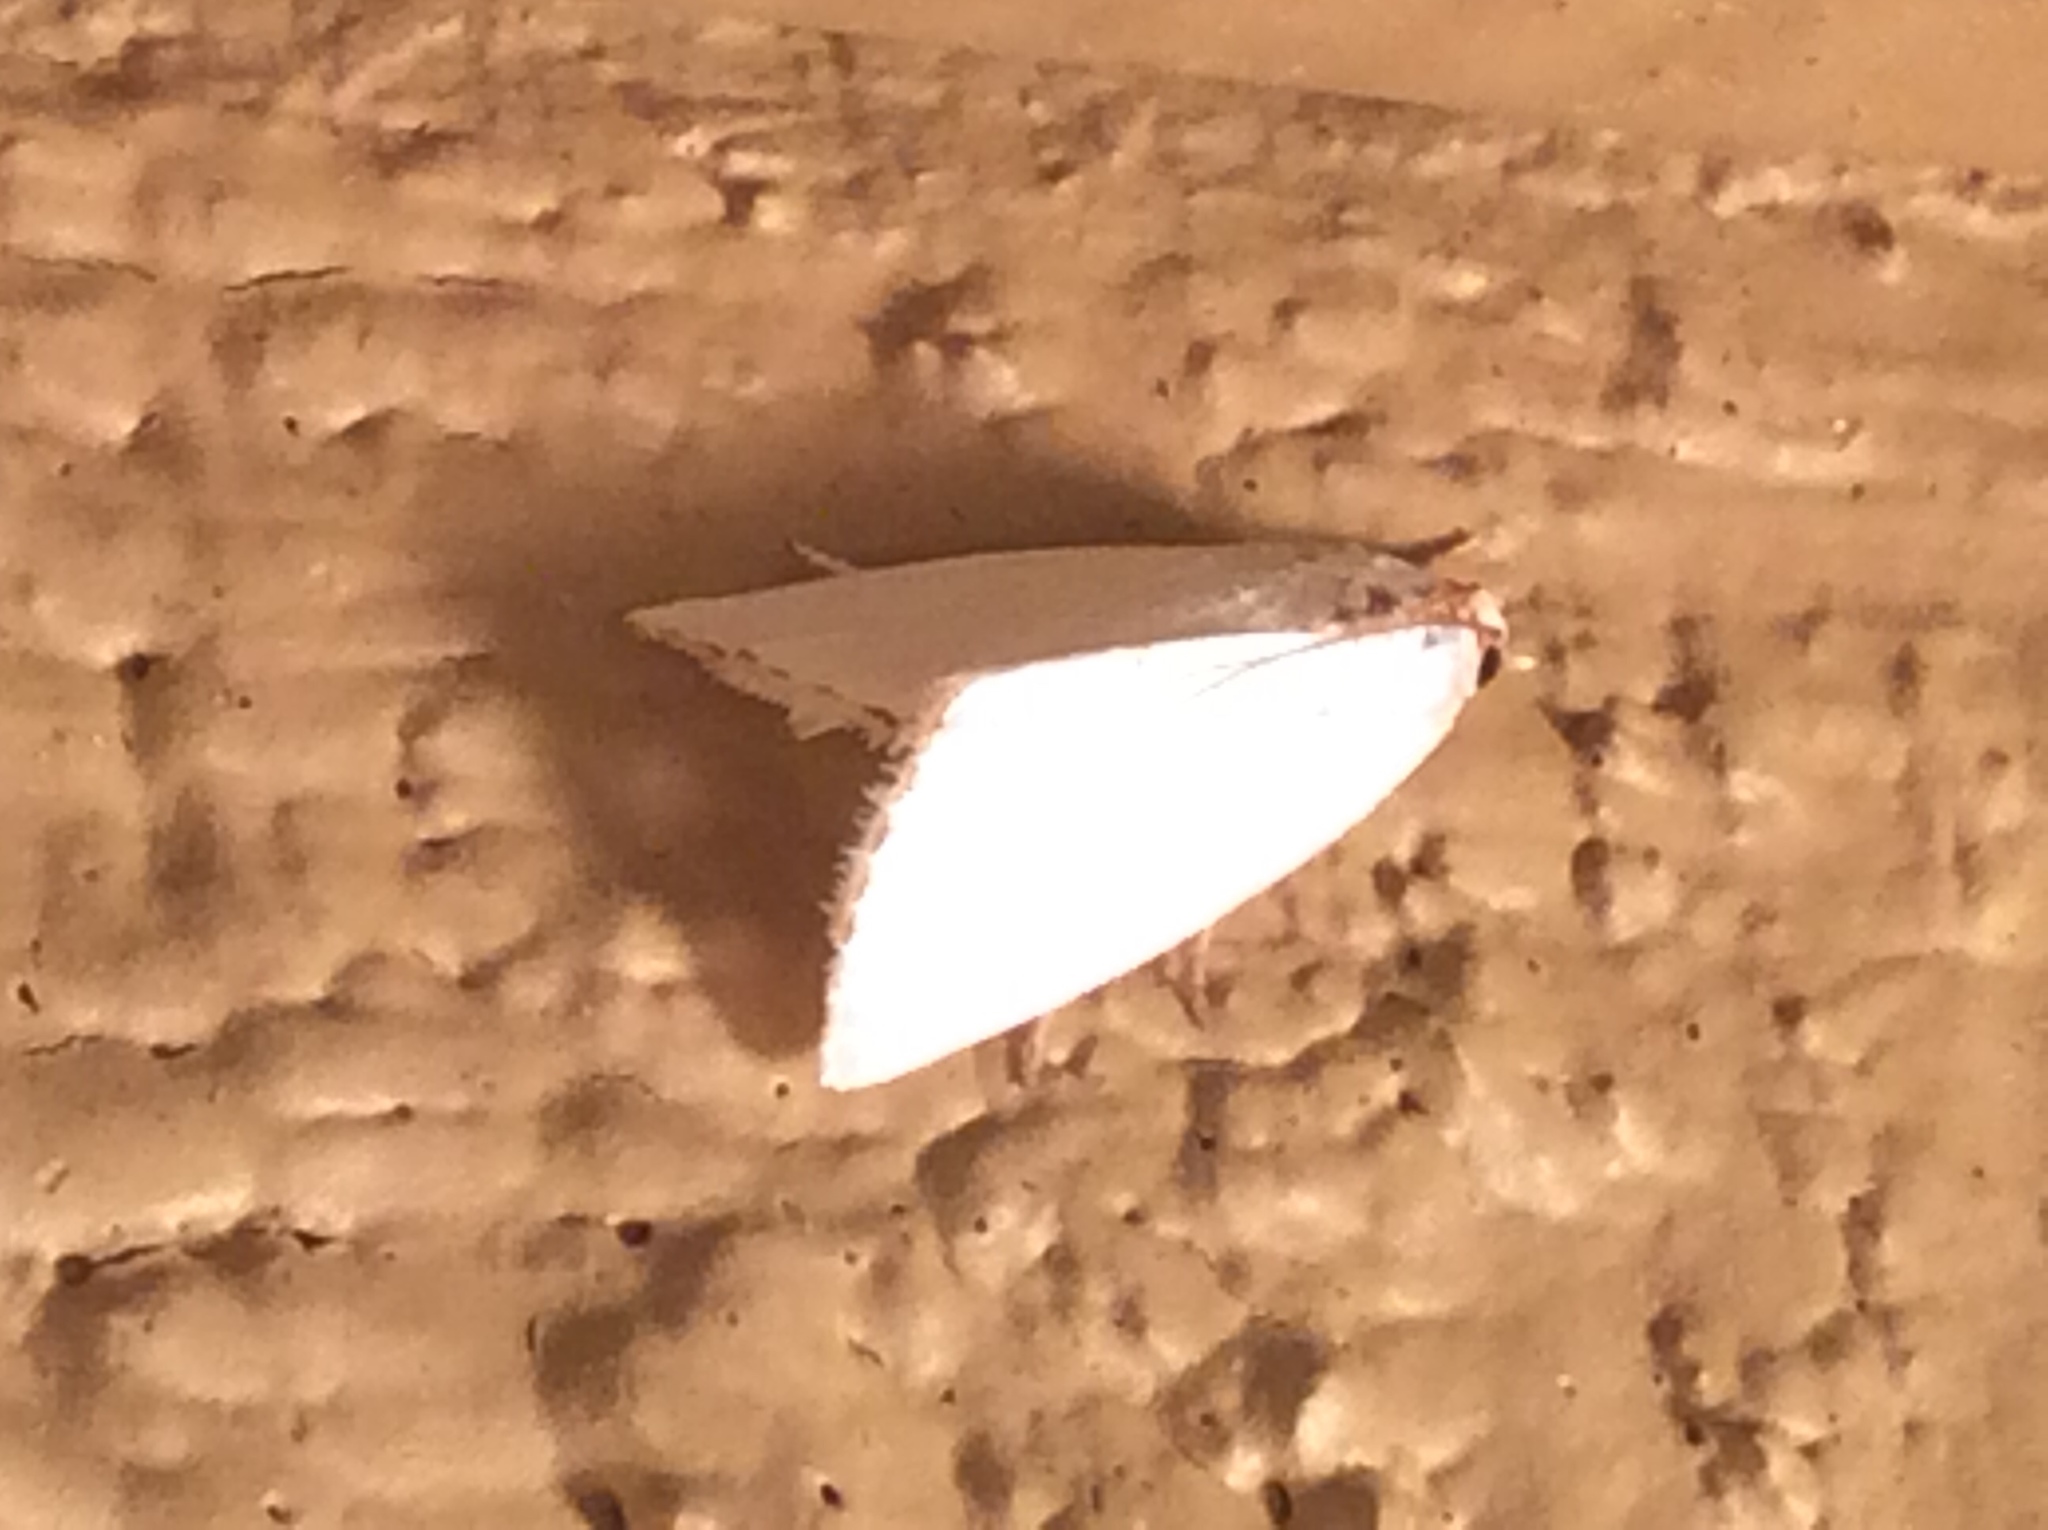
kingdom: Animalia
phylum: Arthropoda
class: Insecta
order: Lepidoptera
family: Crambidae
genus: Argyria
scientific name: Argyria nivalis
